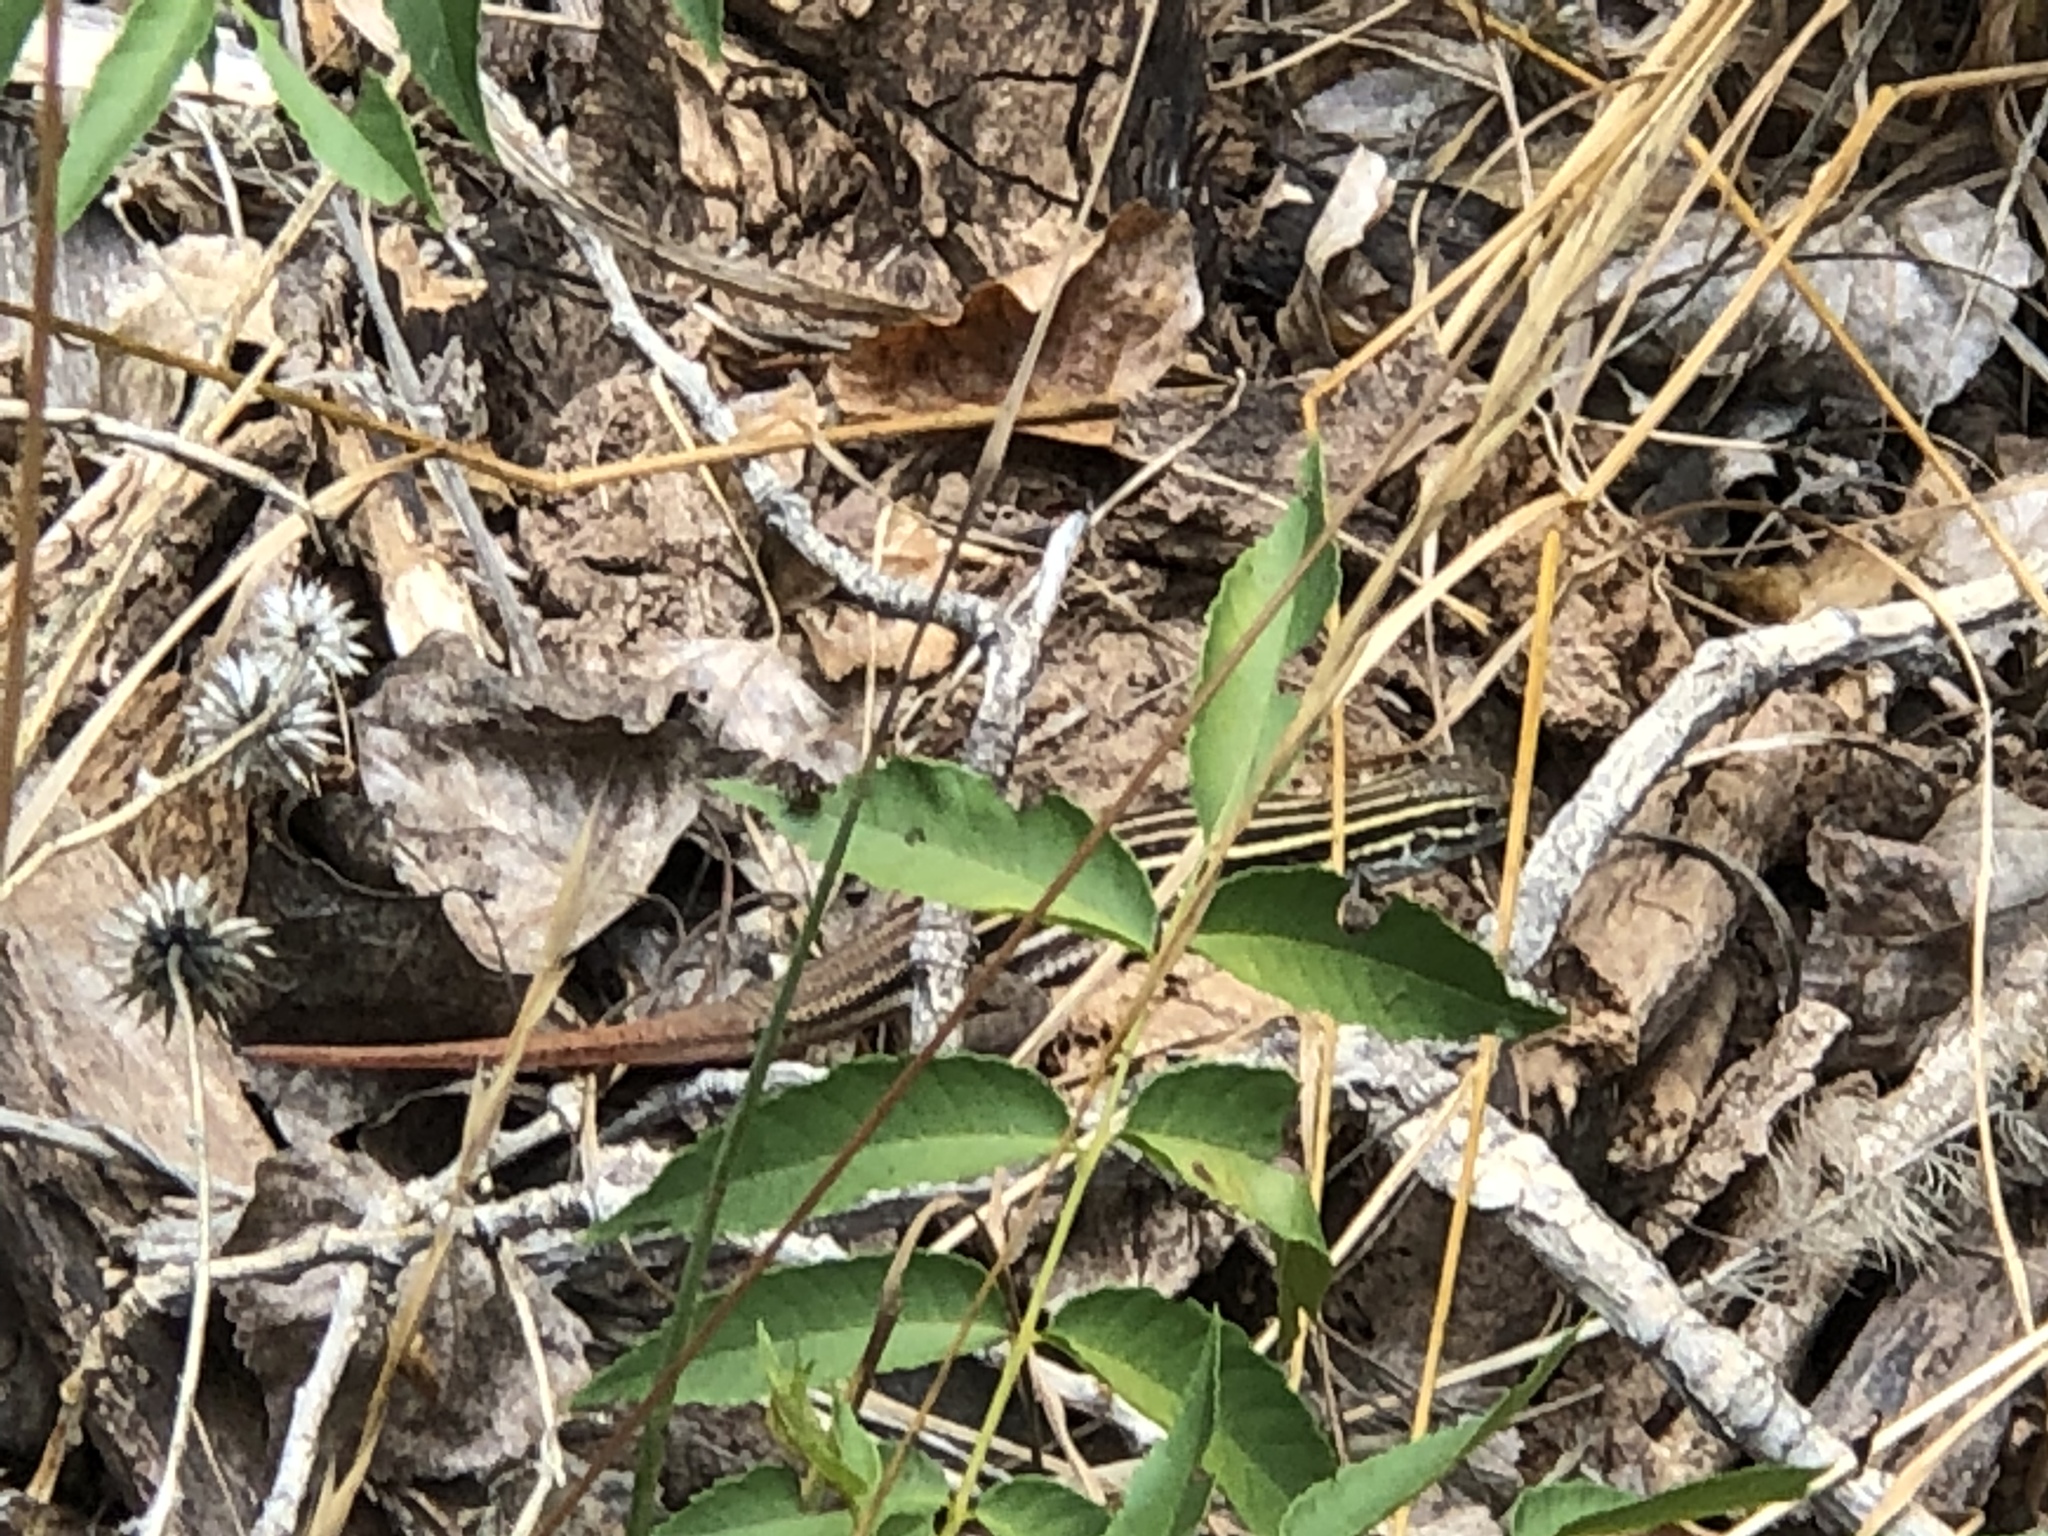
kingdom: Animalia
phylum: Chordata
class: Squamata
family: Teiidae
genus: Aspidoscelis
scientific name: Aspidoscelis sonorae
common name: Sonoran spotted whiptail
